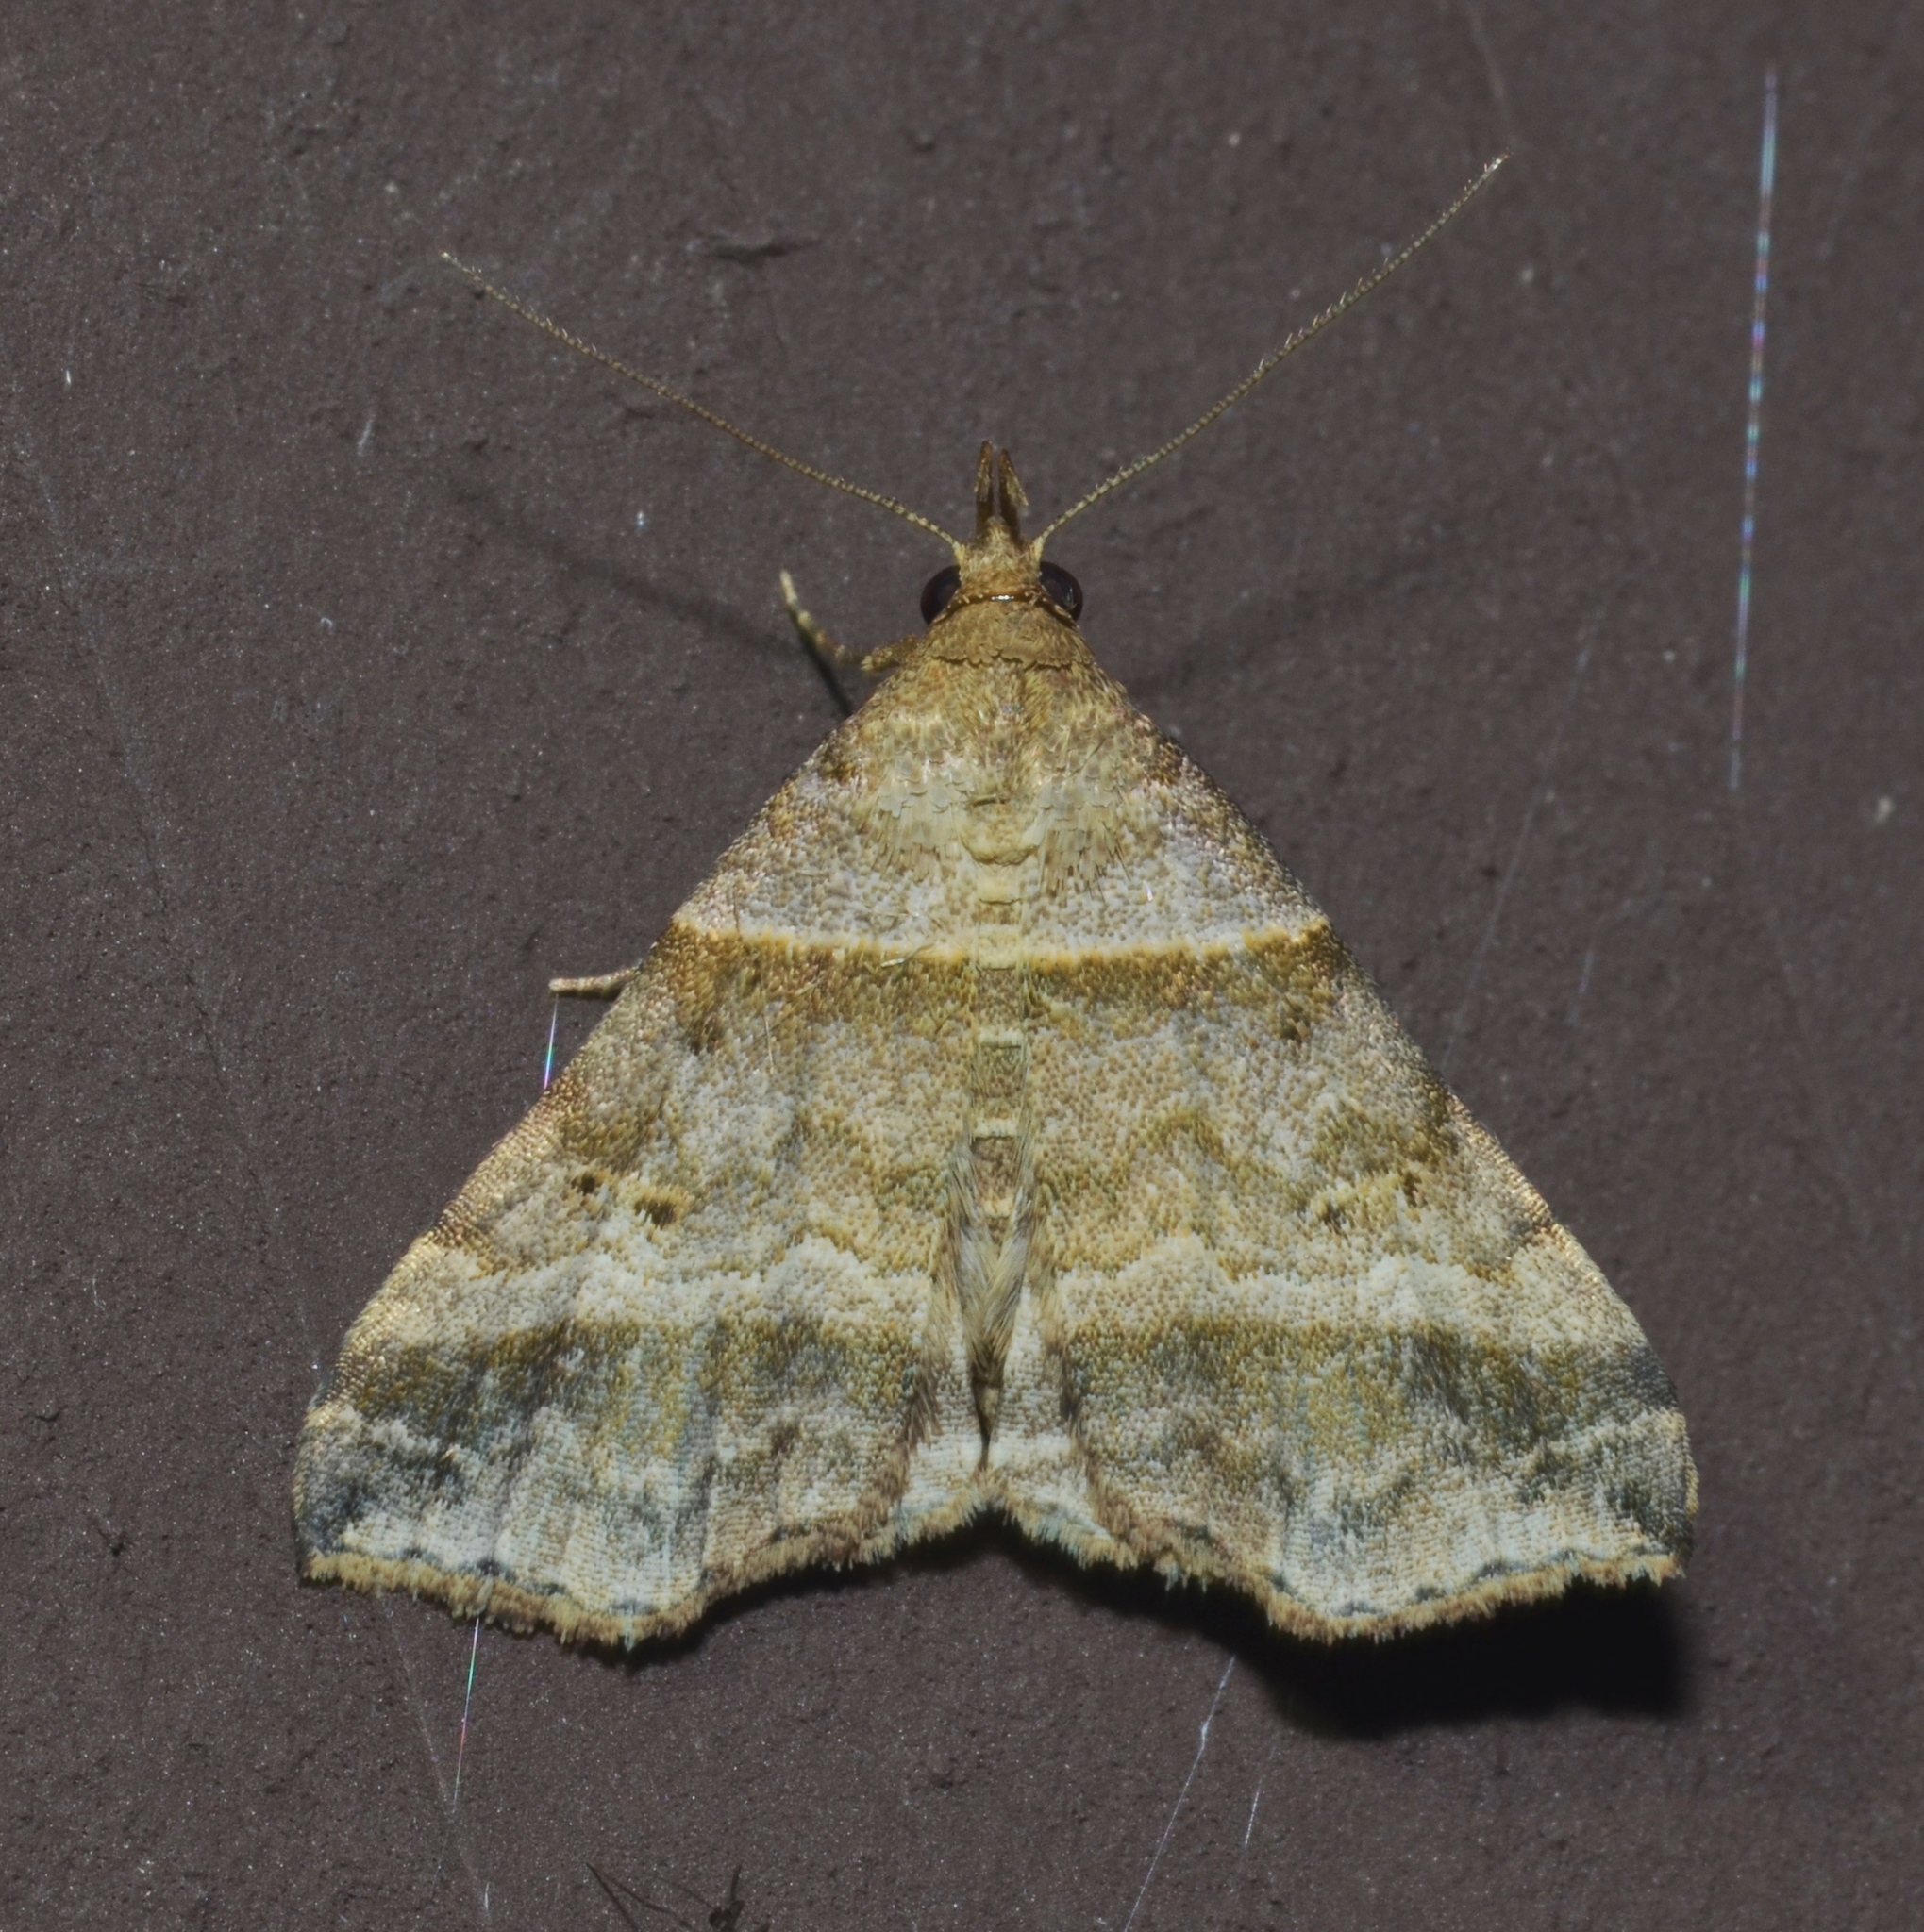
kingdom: Animalia
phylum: Arthropoda
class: Insecta
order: Lepidoptera
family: Erebidae
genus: Phaeolita
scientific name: Phaeolita pyramusalis
